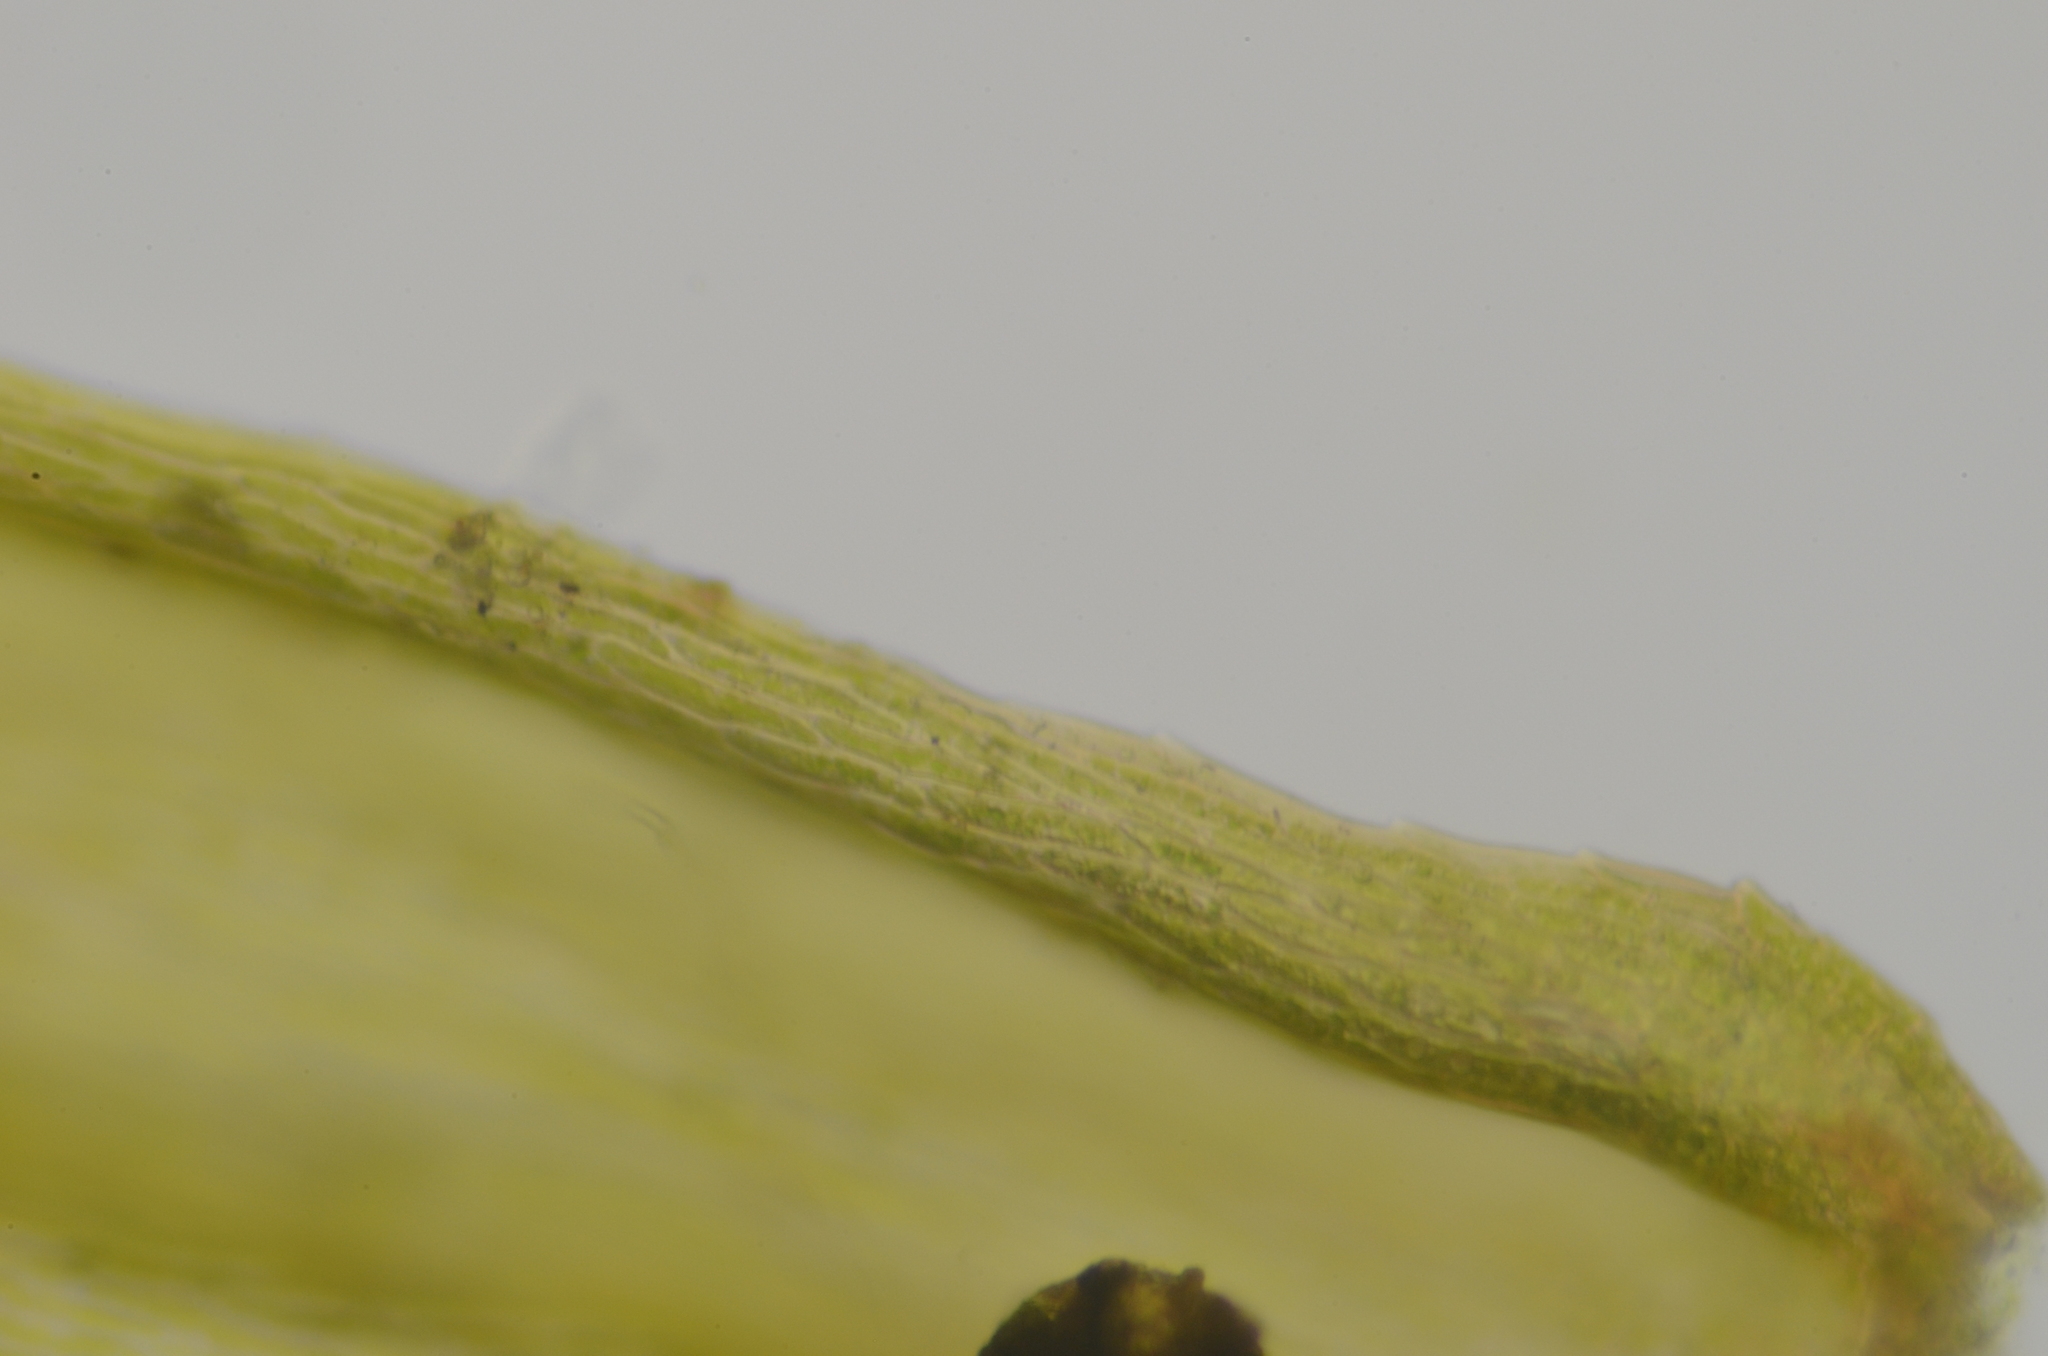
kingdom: Plantae
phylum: Bryophyta
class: Bryopsida
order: Hypnales
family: Brachytheciaceae
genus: Homalothecium
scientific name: Homalothecium fulgescens
